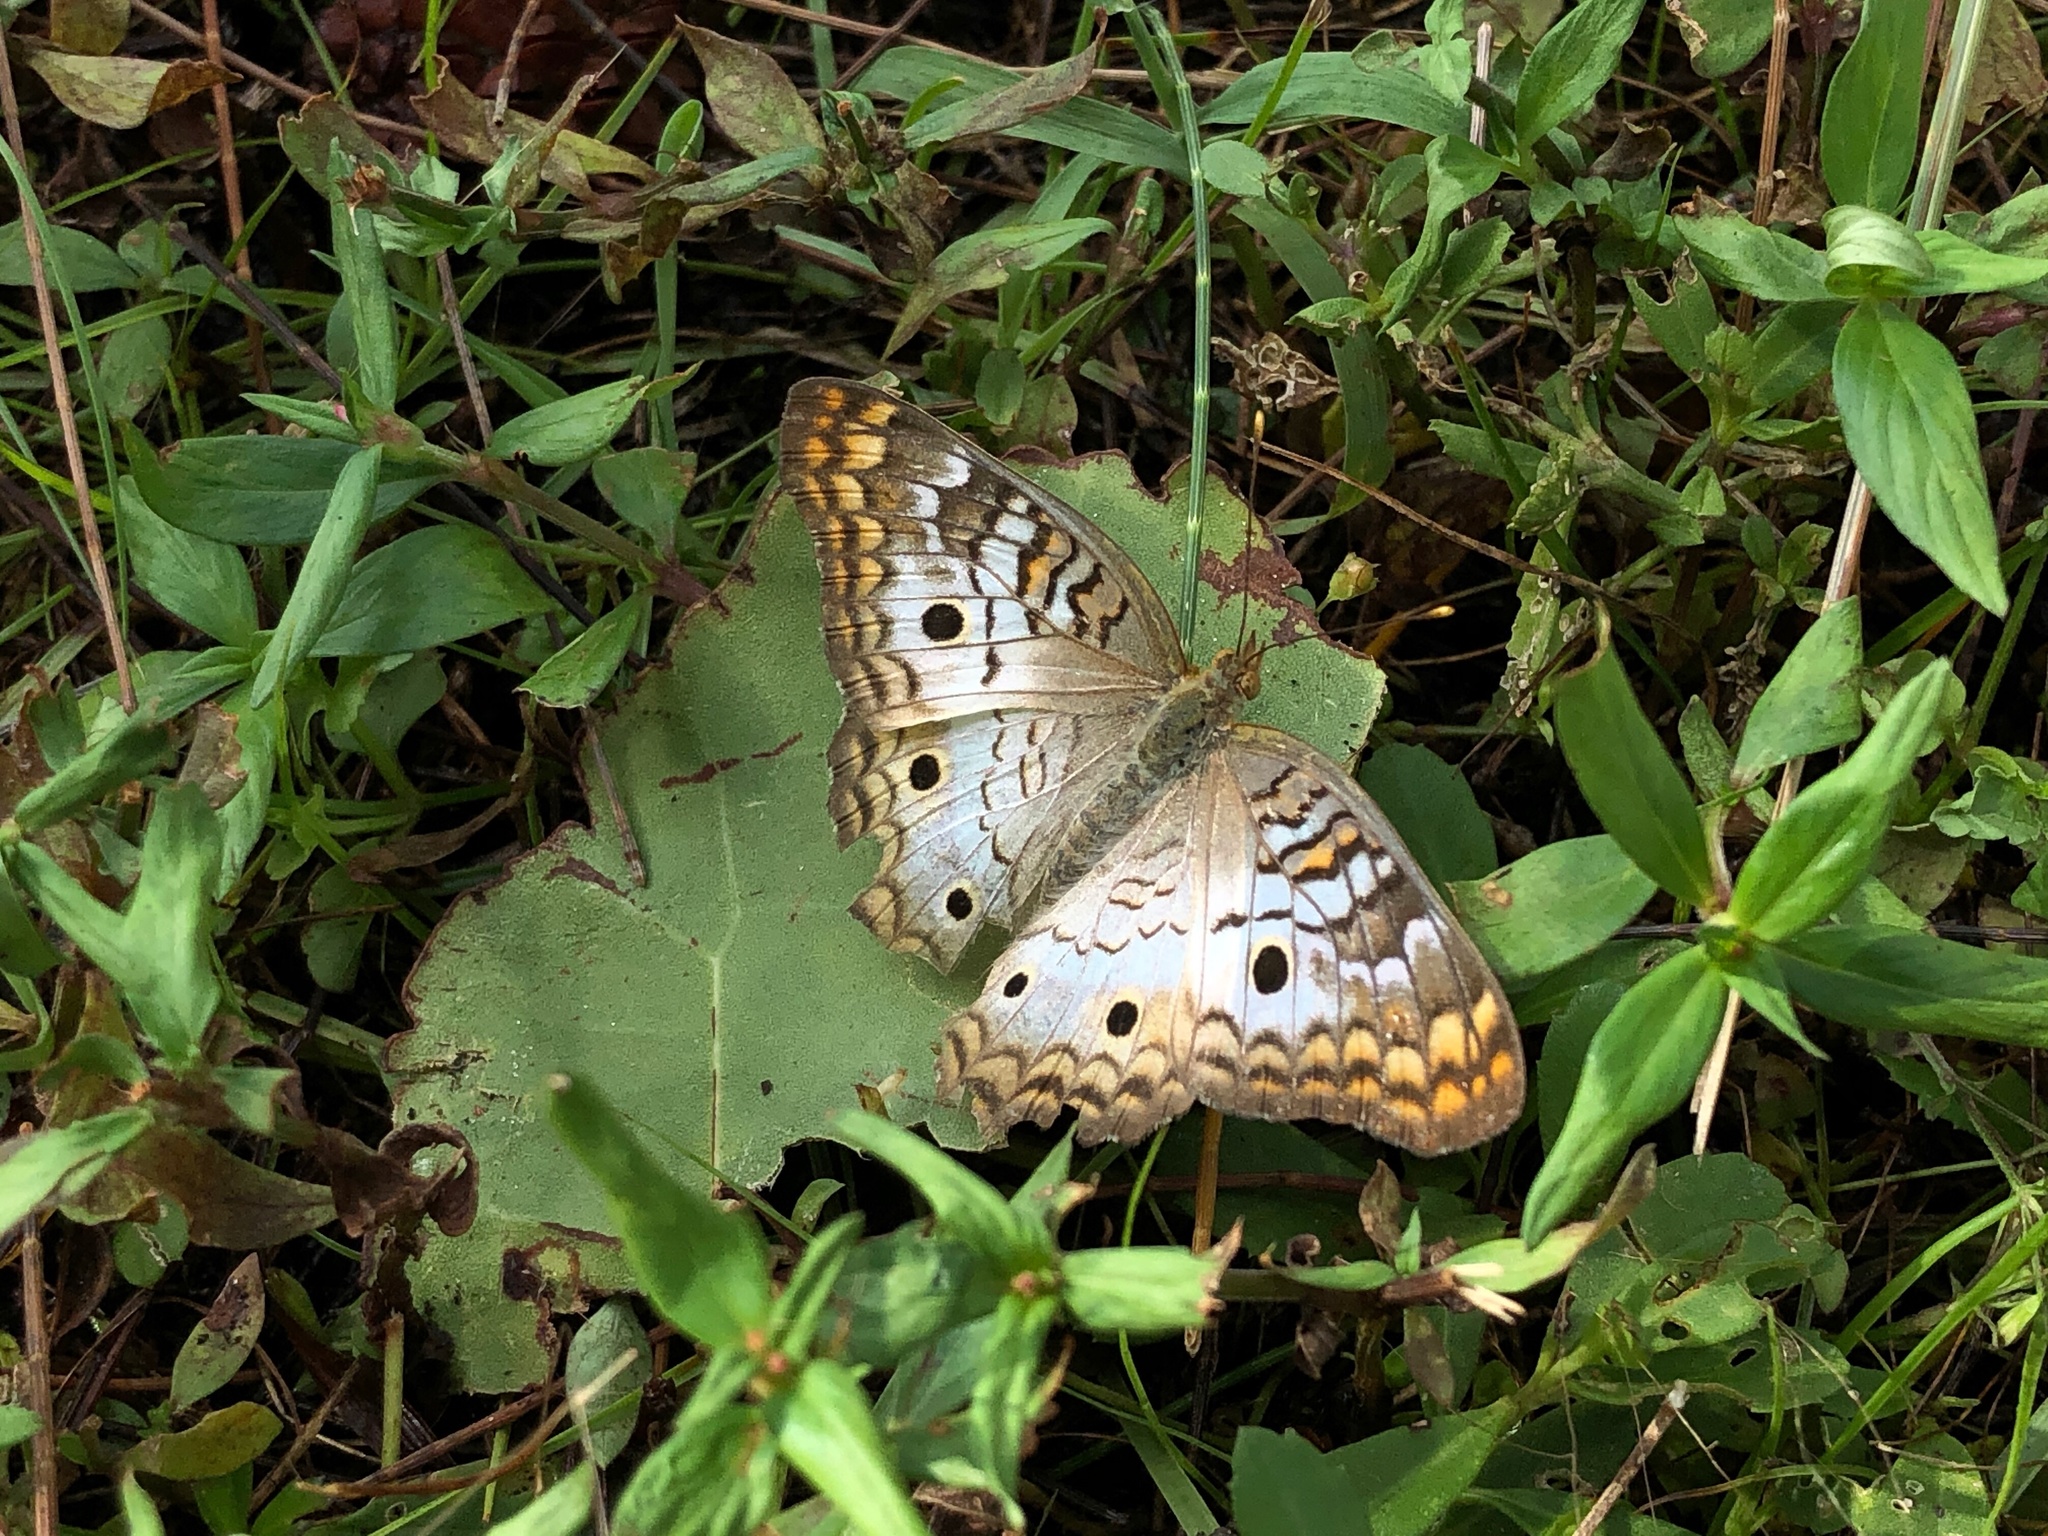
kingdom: Animalia
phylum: Arthropoda
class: Insecta
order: Lepidoptera
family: Nymphalidae
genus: Anartia
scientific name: Anartia jatrophae
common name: White peacock
